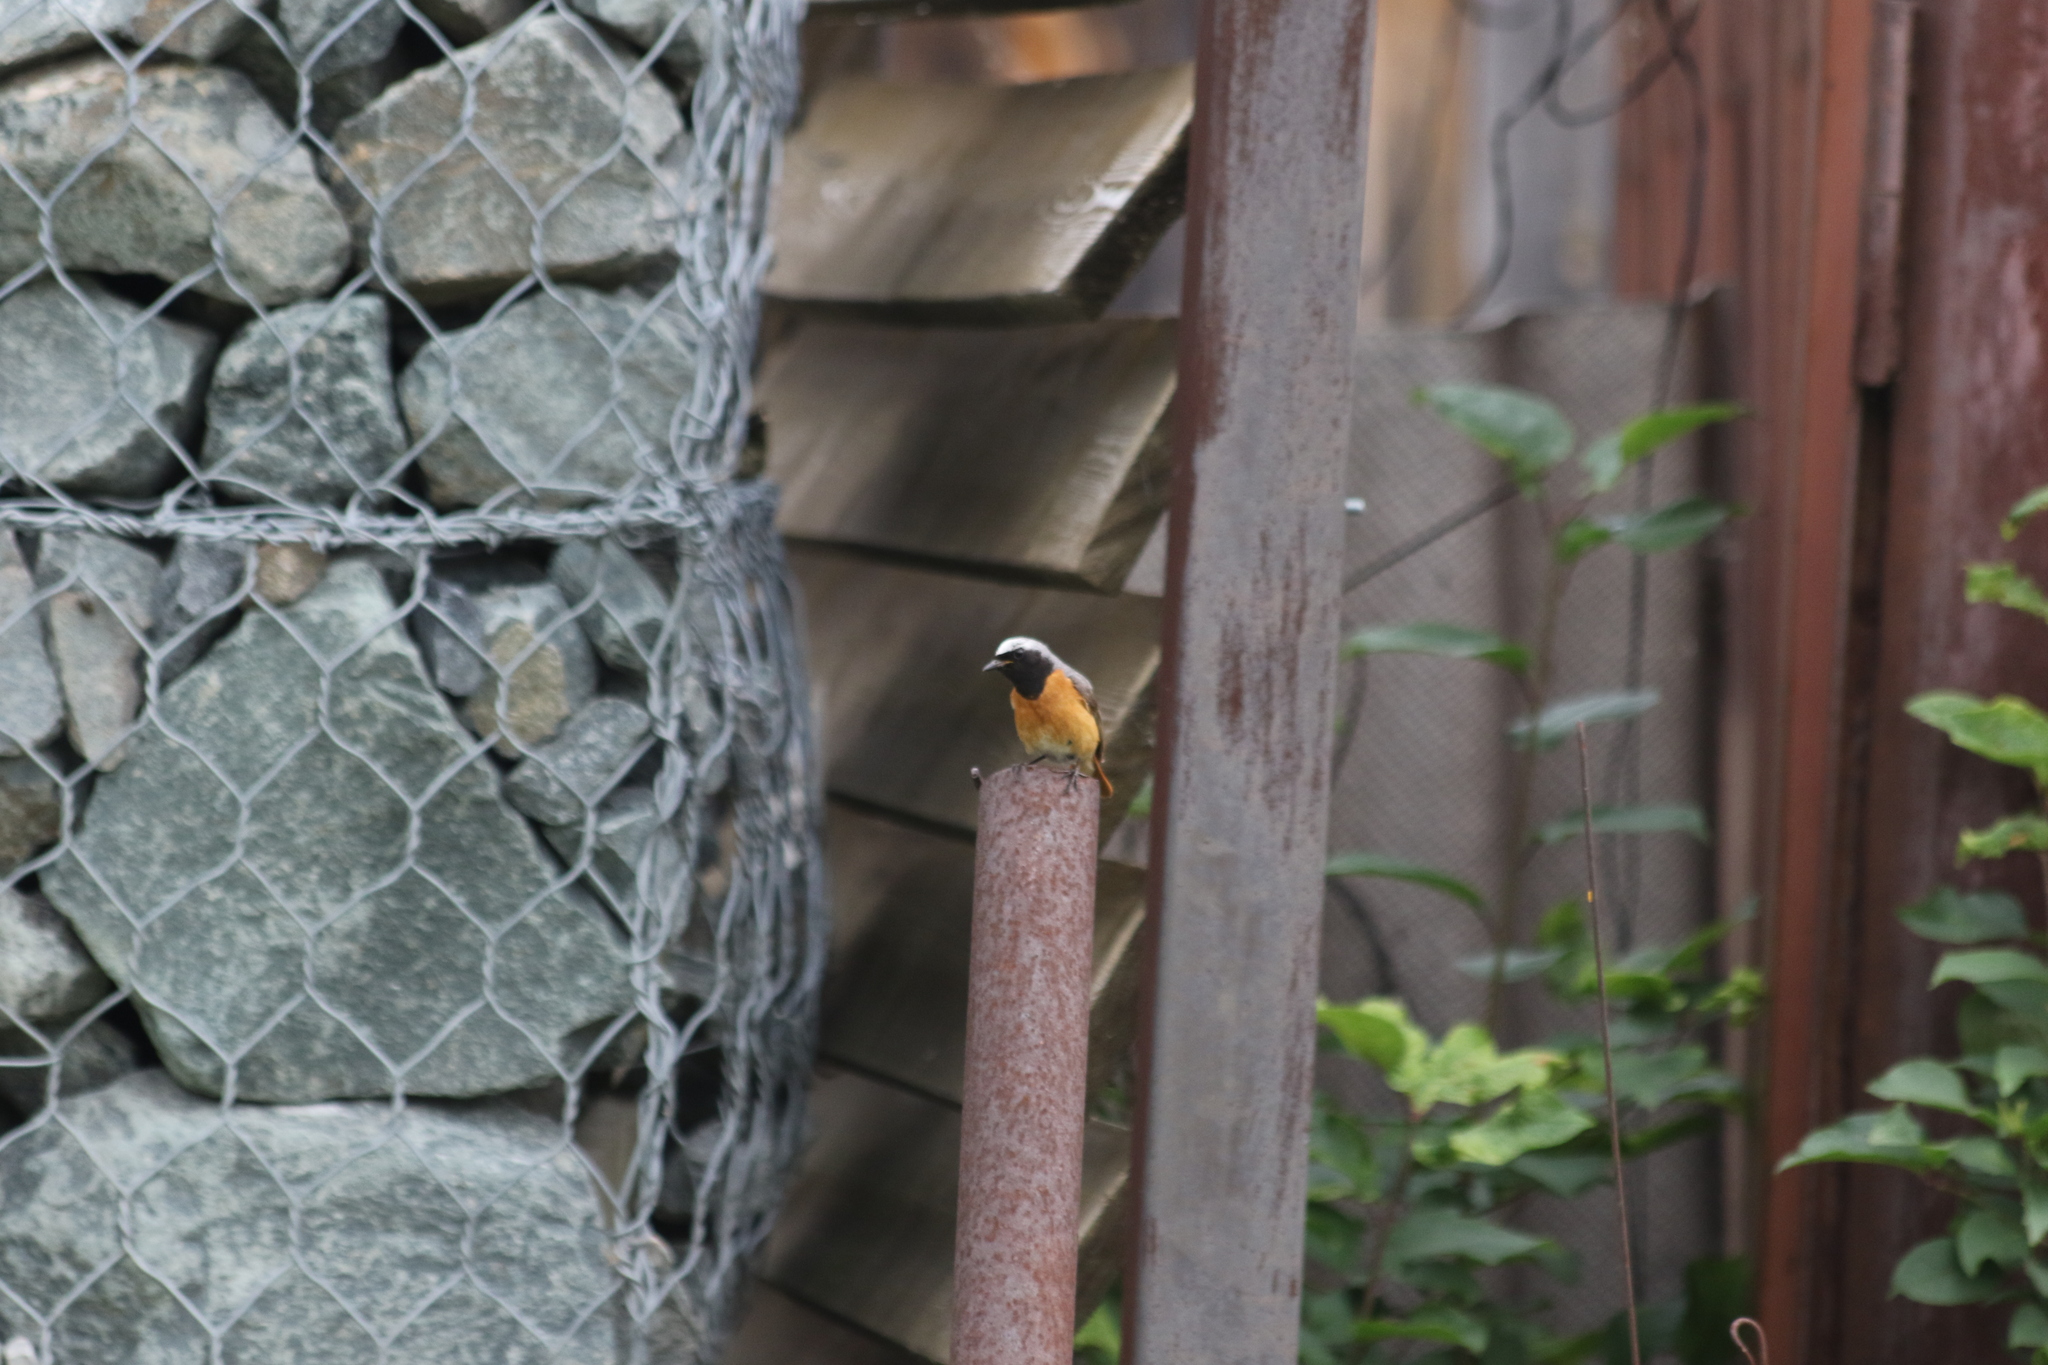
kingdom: Animalia
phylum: Chordata
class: Aves
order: Passeriformes
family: Muscicapidae
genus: Phoenicurus
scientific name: Phoenicurus phoenicurus
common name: Common redstart
